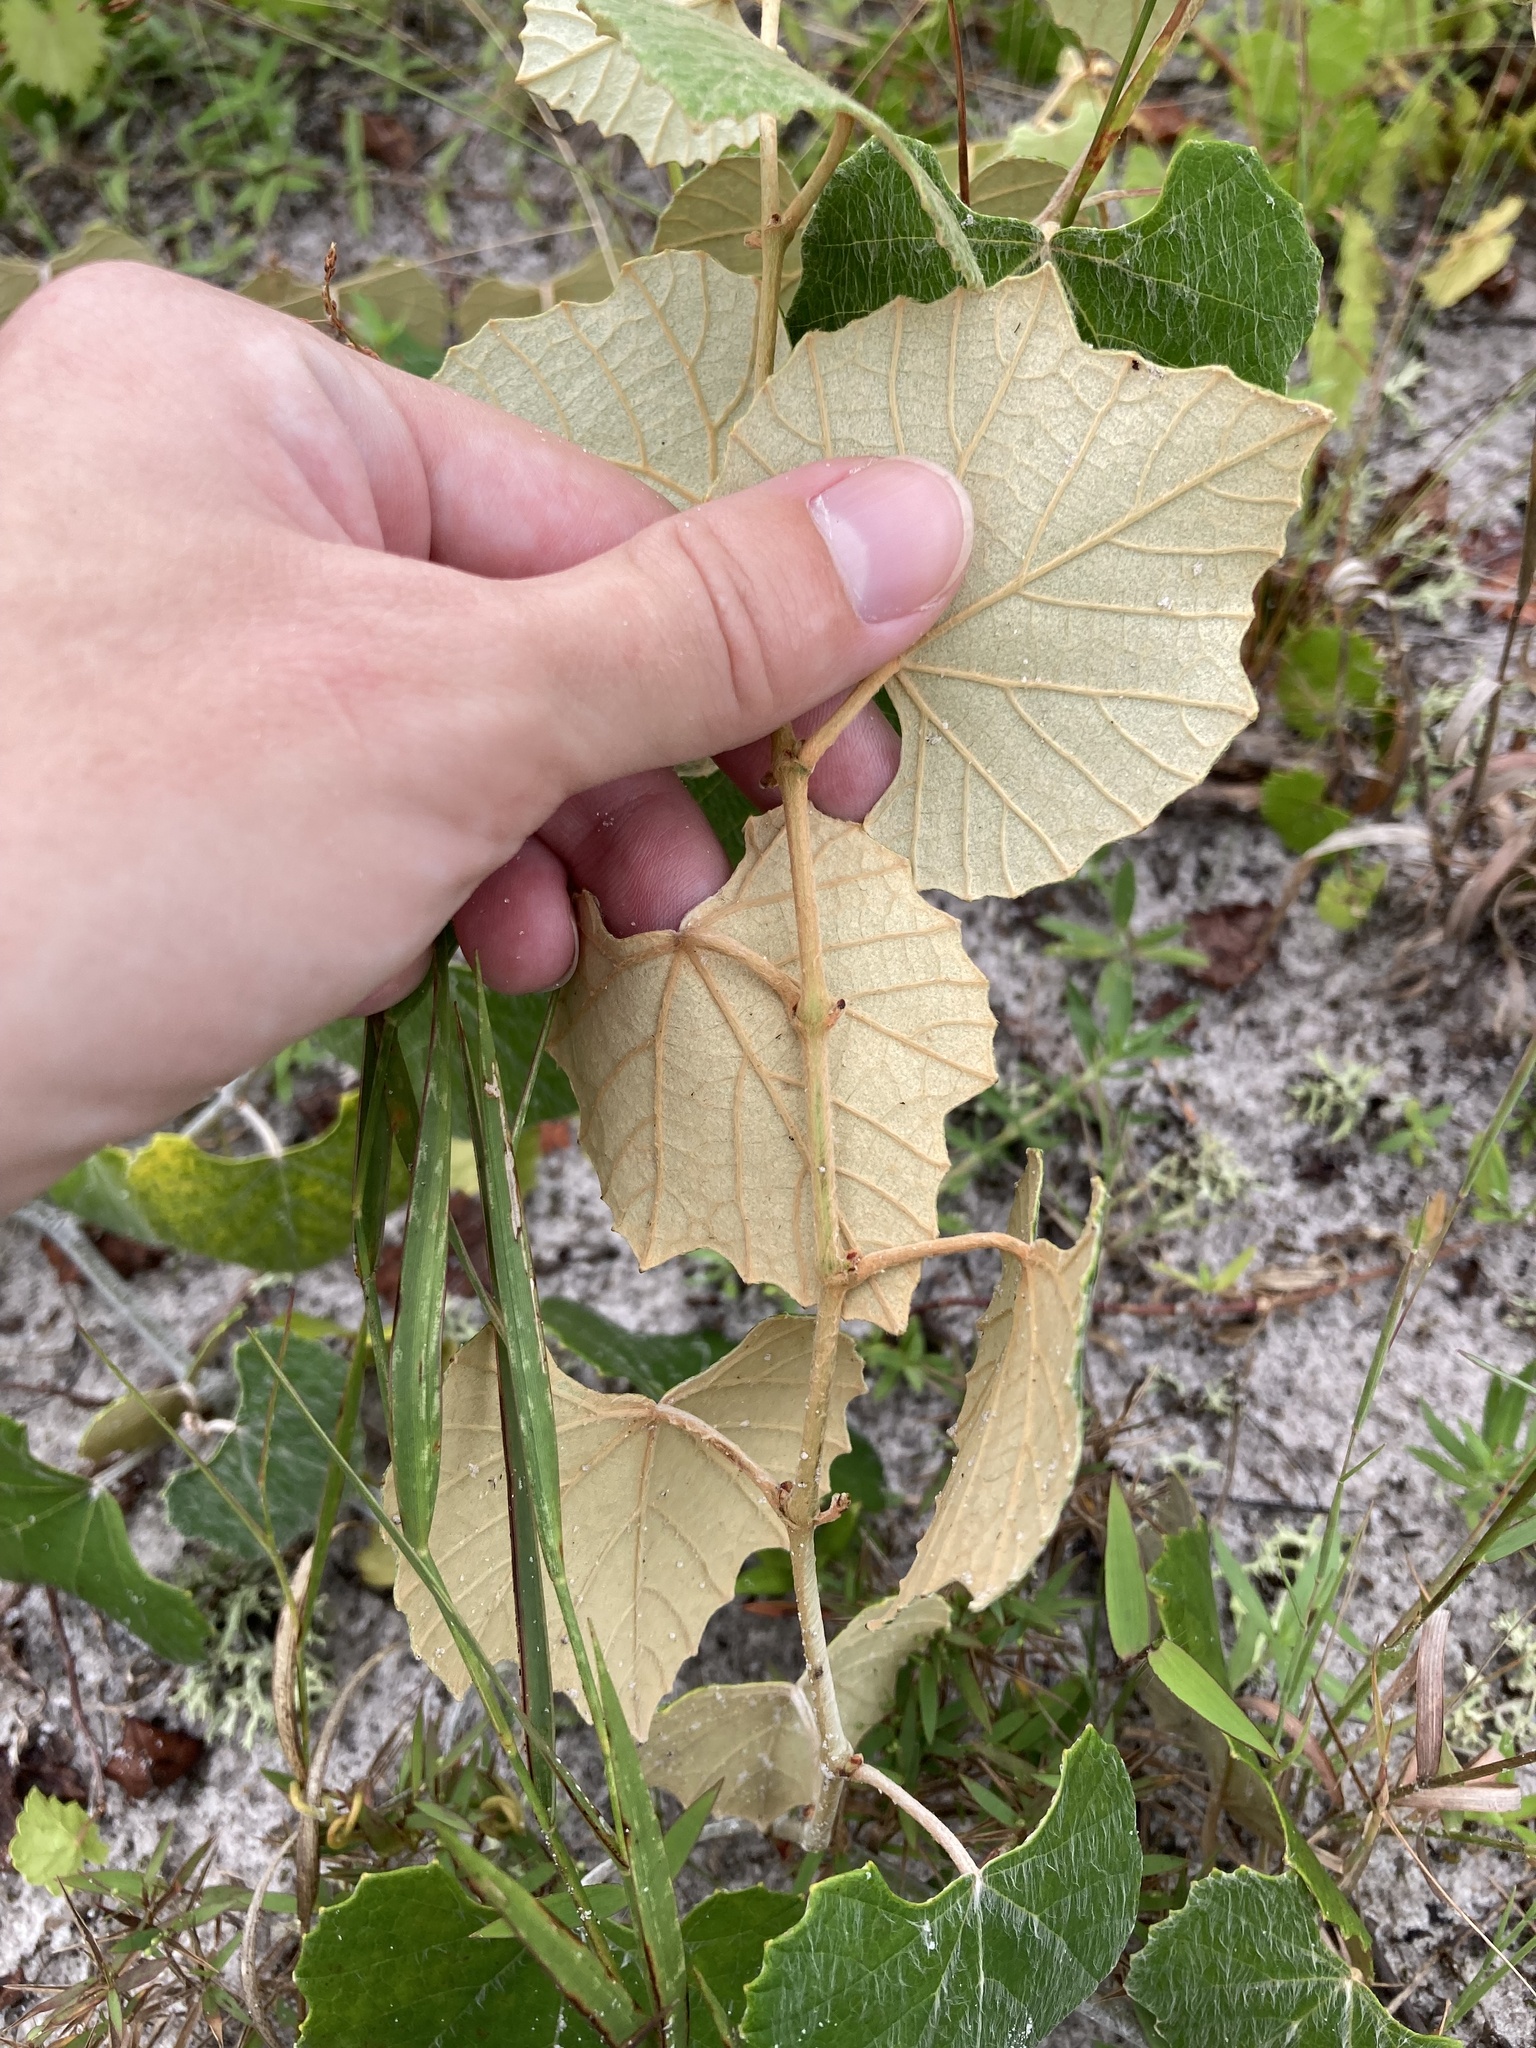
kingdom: Plantae
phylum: Tracheophyta
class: Magnoliopsida
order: Vitales
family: Vitaceae
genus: Vitis
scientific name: Vitis shuttleworthii
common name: Caloosa grape
